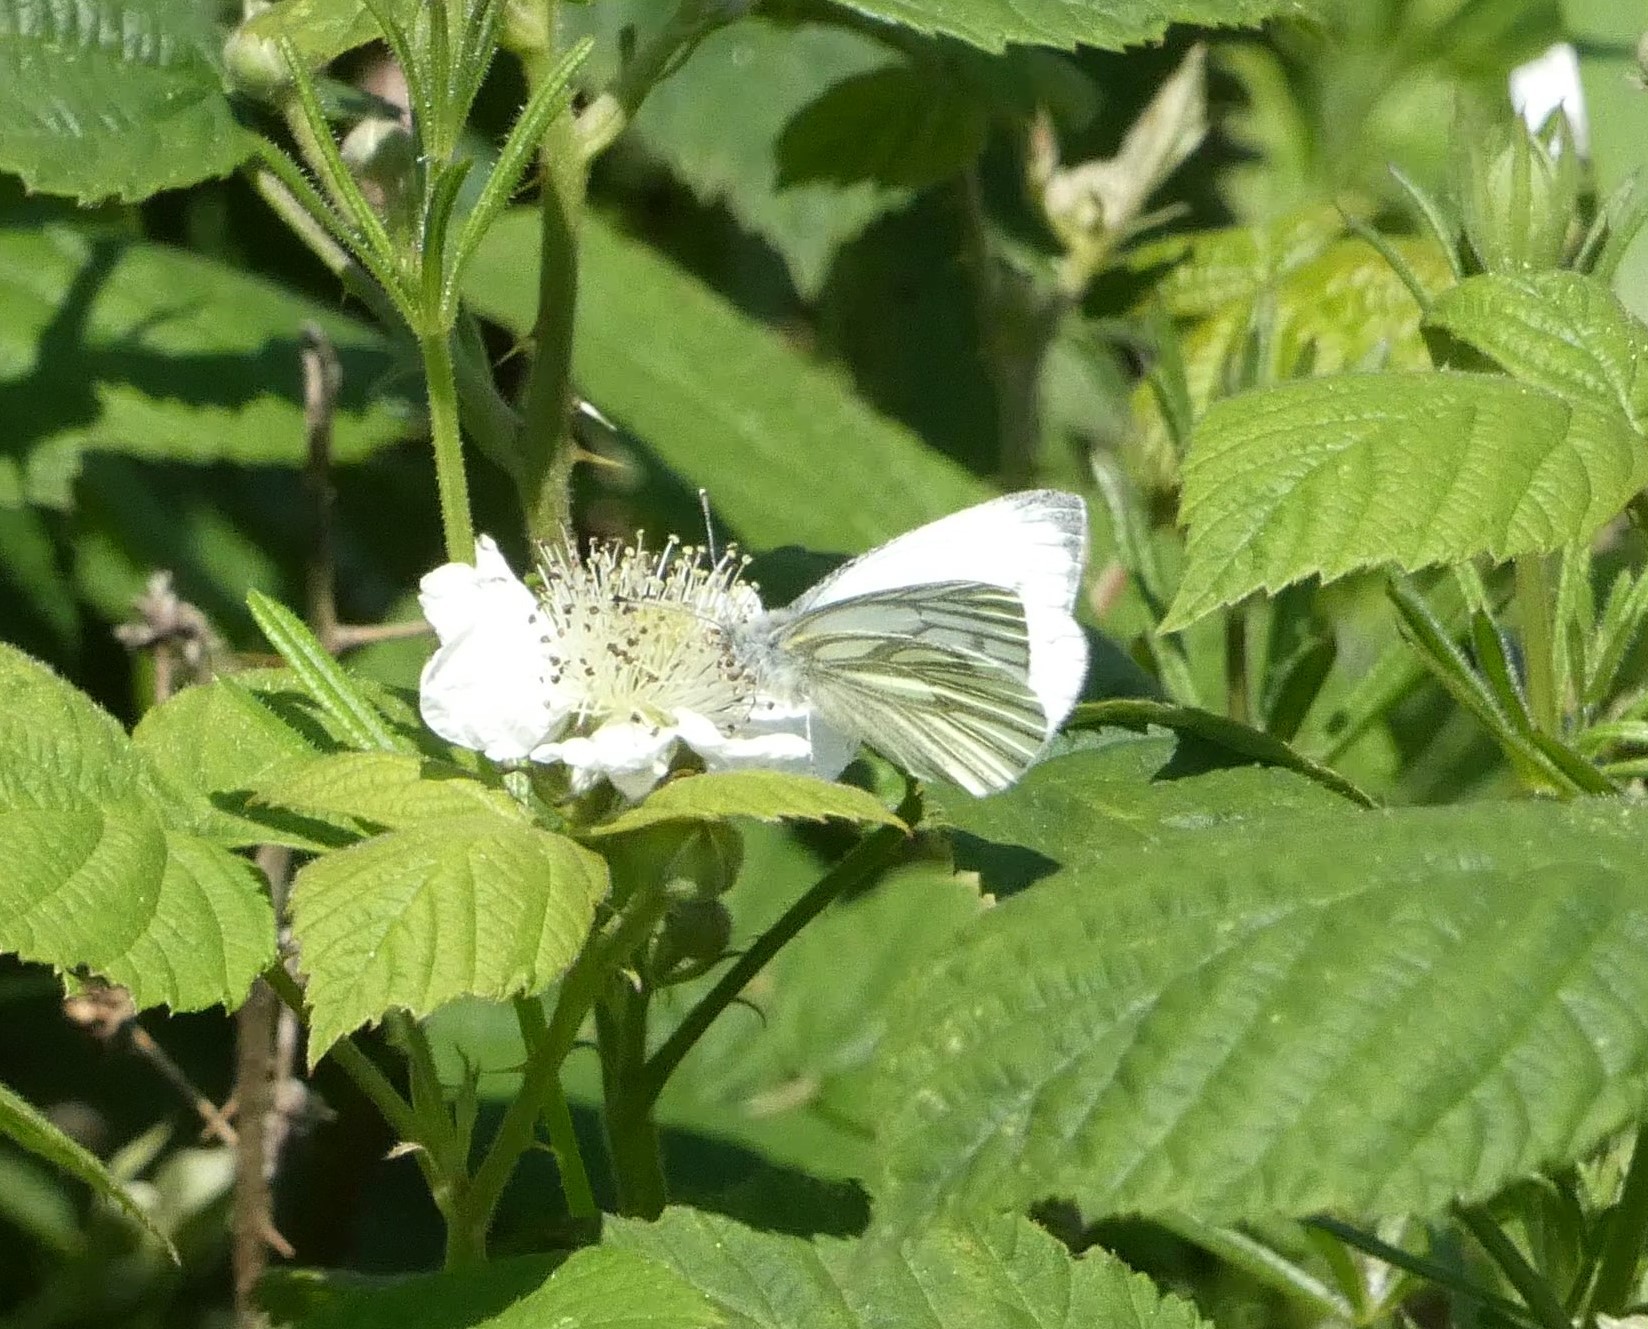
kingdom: Animalia
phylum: Arthropoda
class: Insecta
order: Lepidoptera
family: Pieridae
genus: Pieris
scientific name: Pieris napi
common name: Green-veined white
